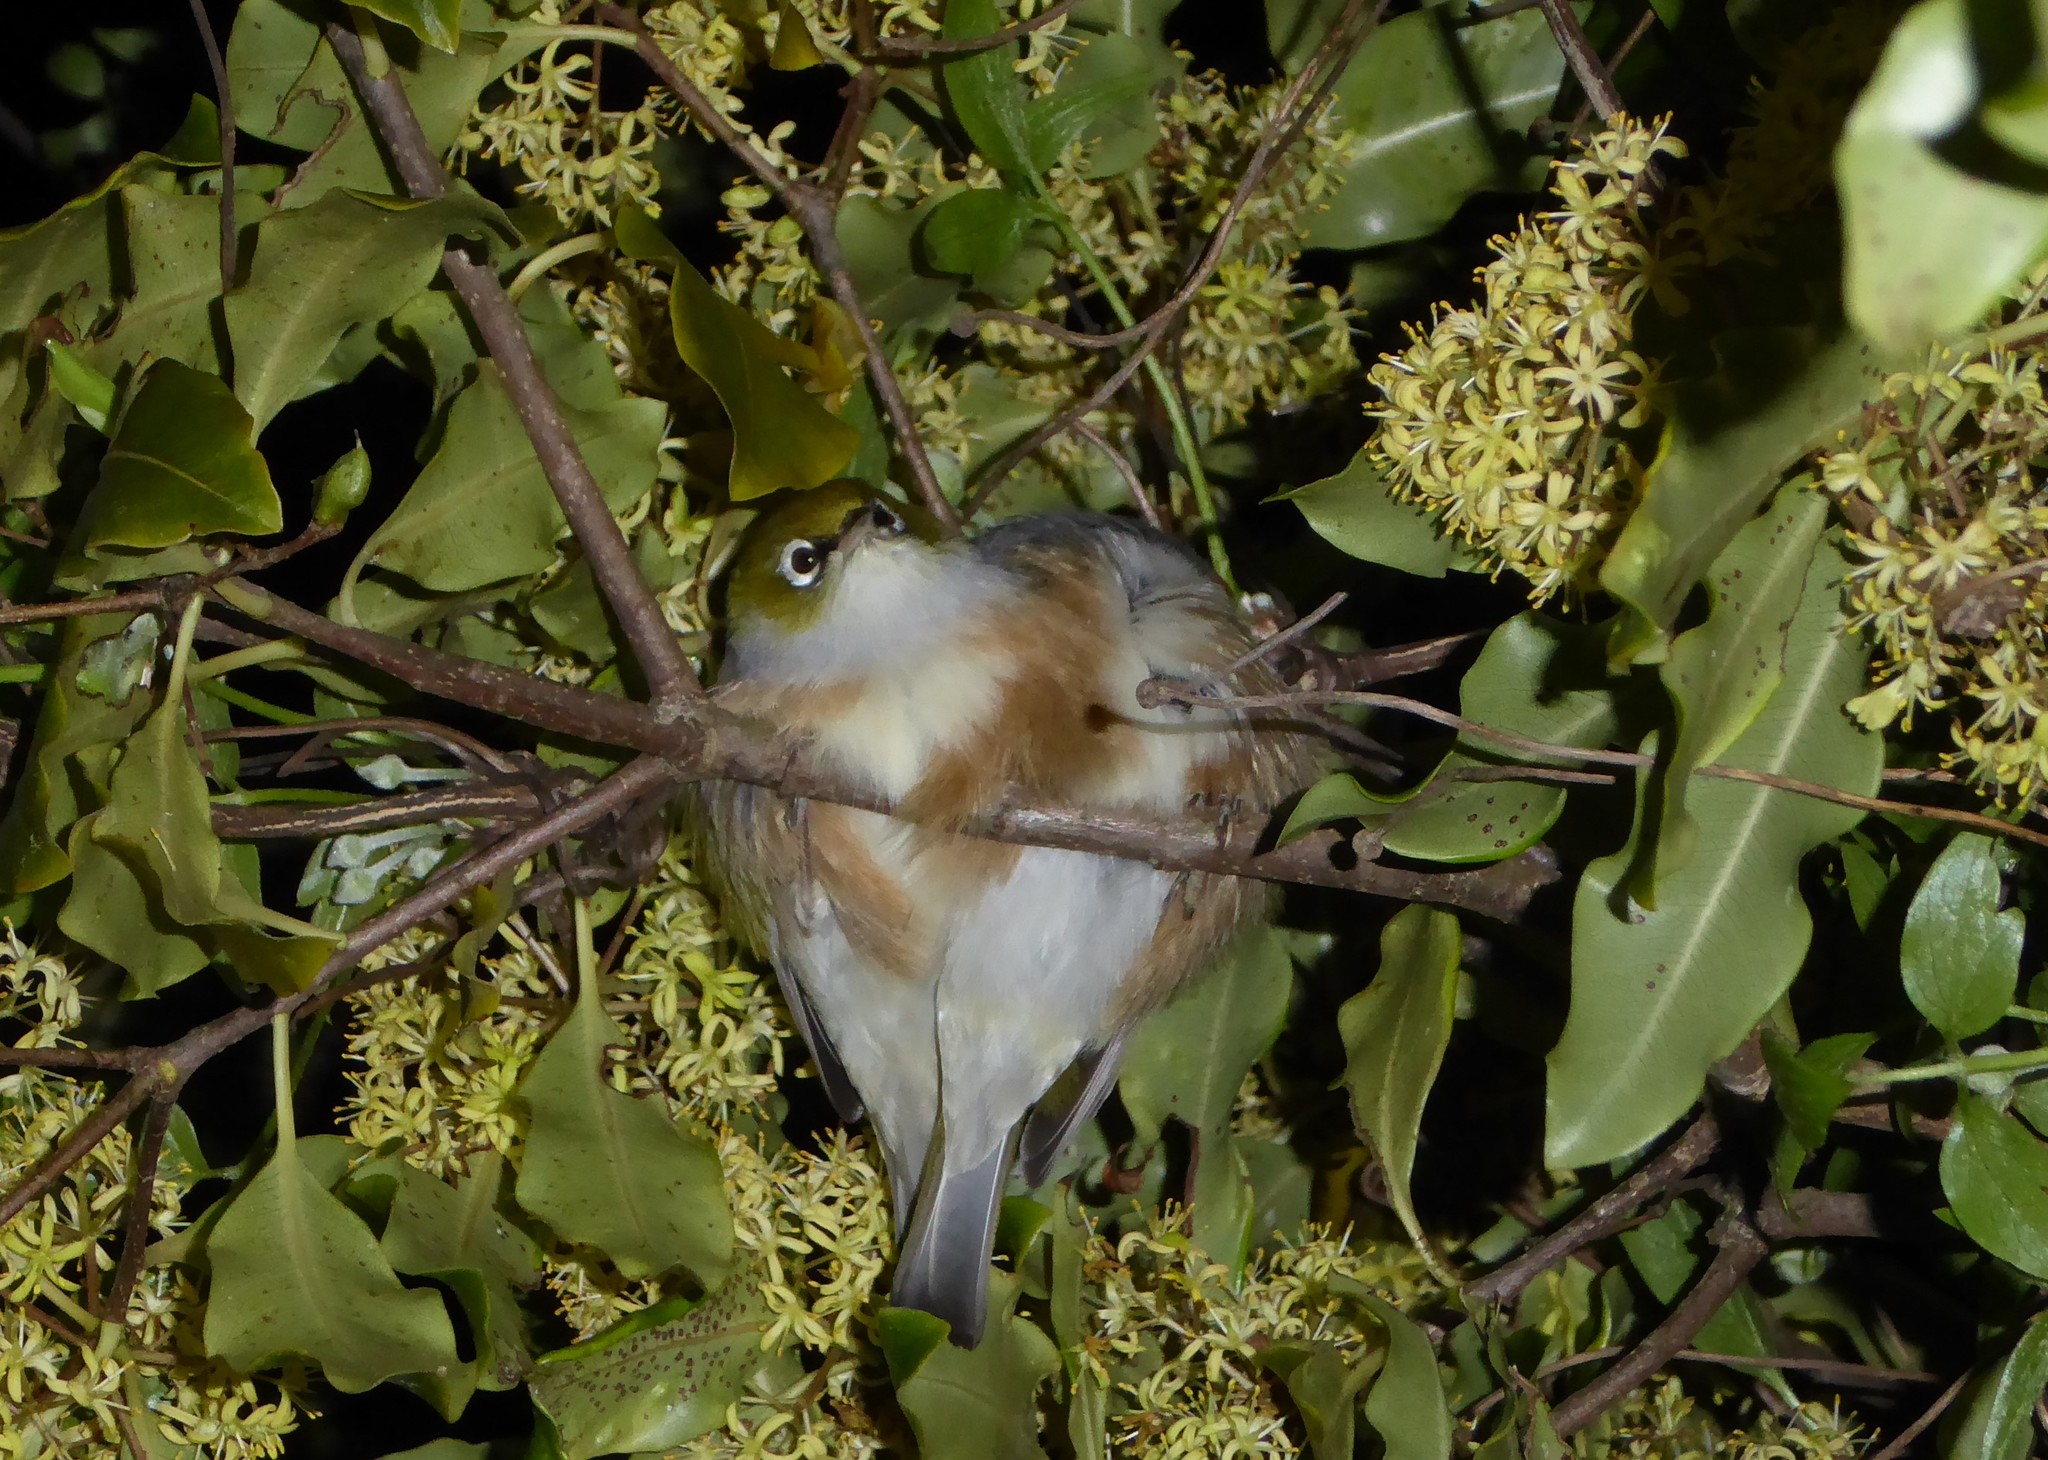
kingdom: Animalia
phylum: Chordata
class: Aves
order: Passeriformes
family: Zosteropidae
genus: Zosterops
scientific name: Zosterops lateralis
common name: Silvereye
